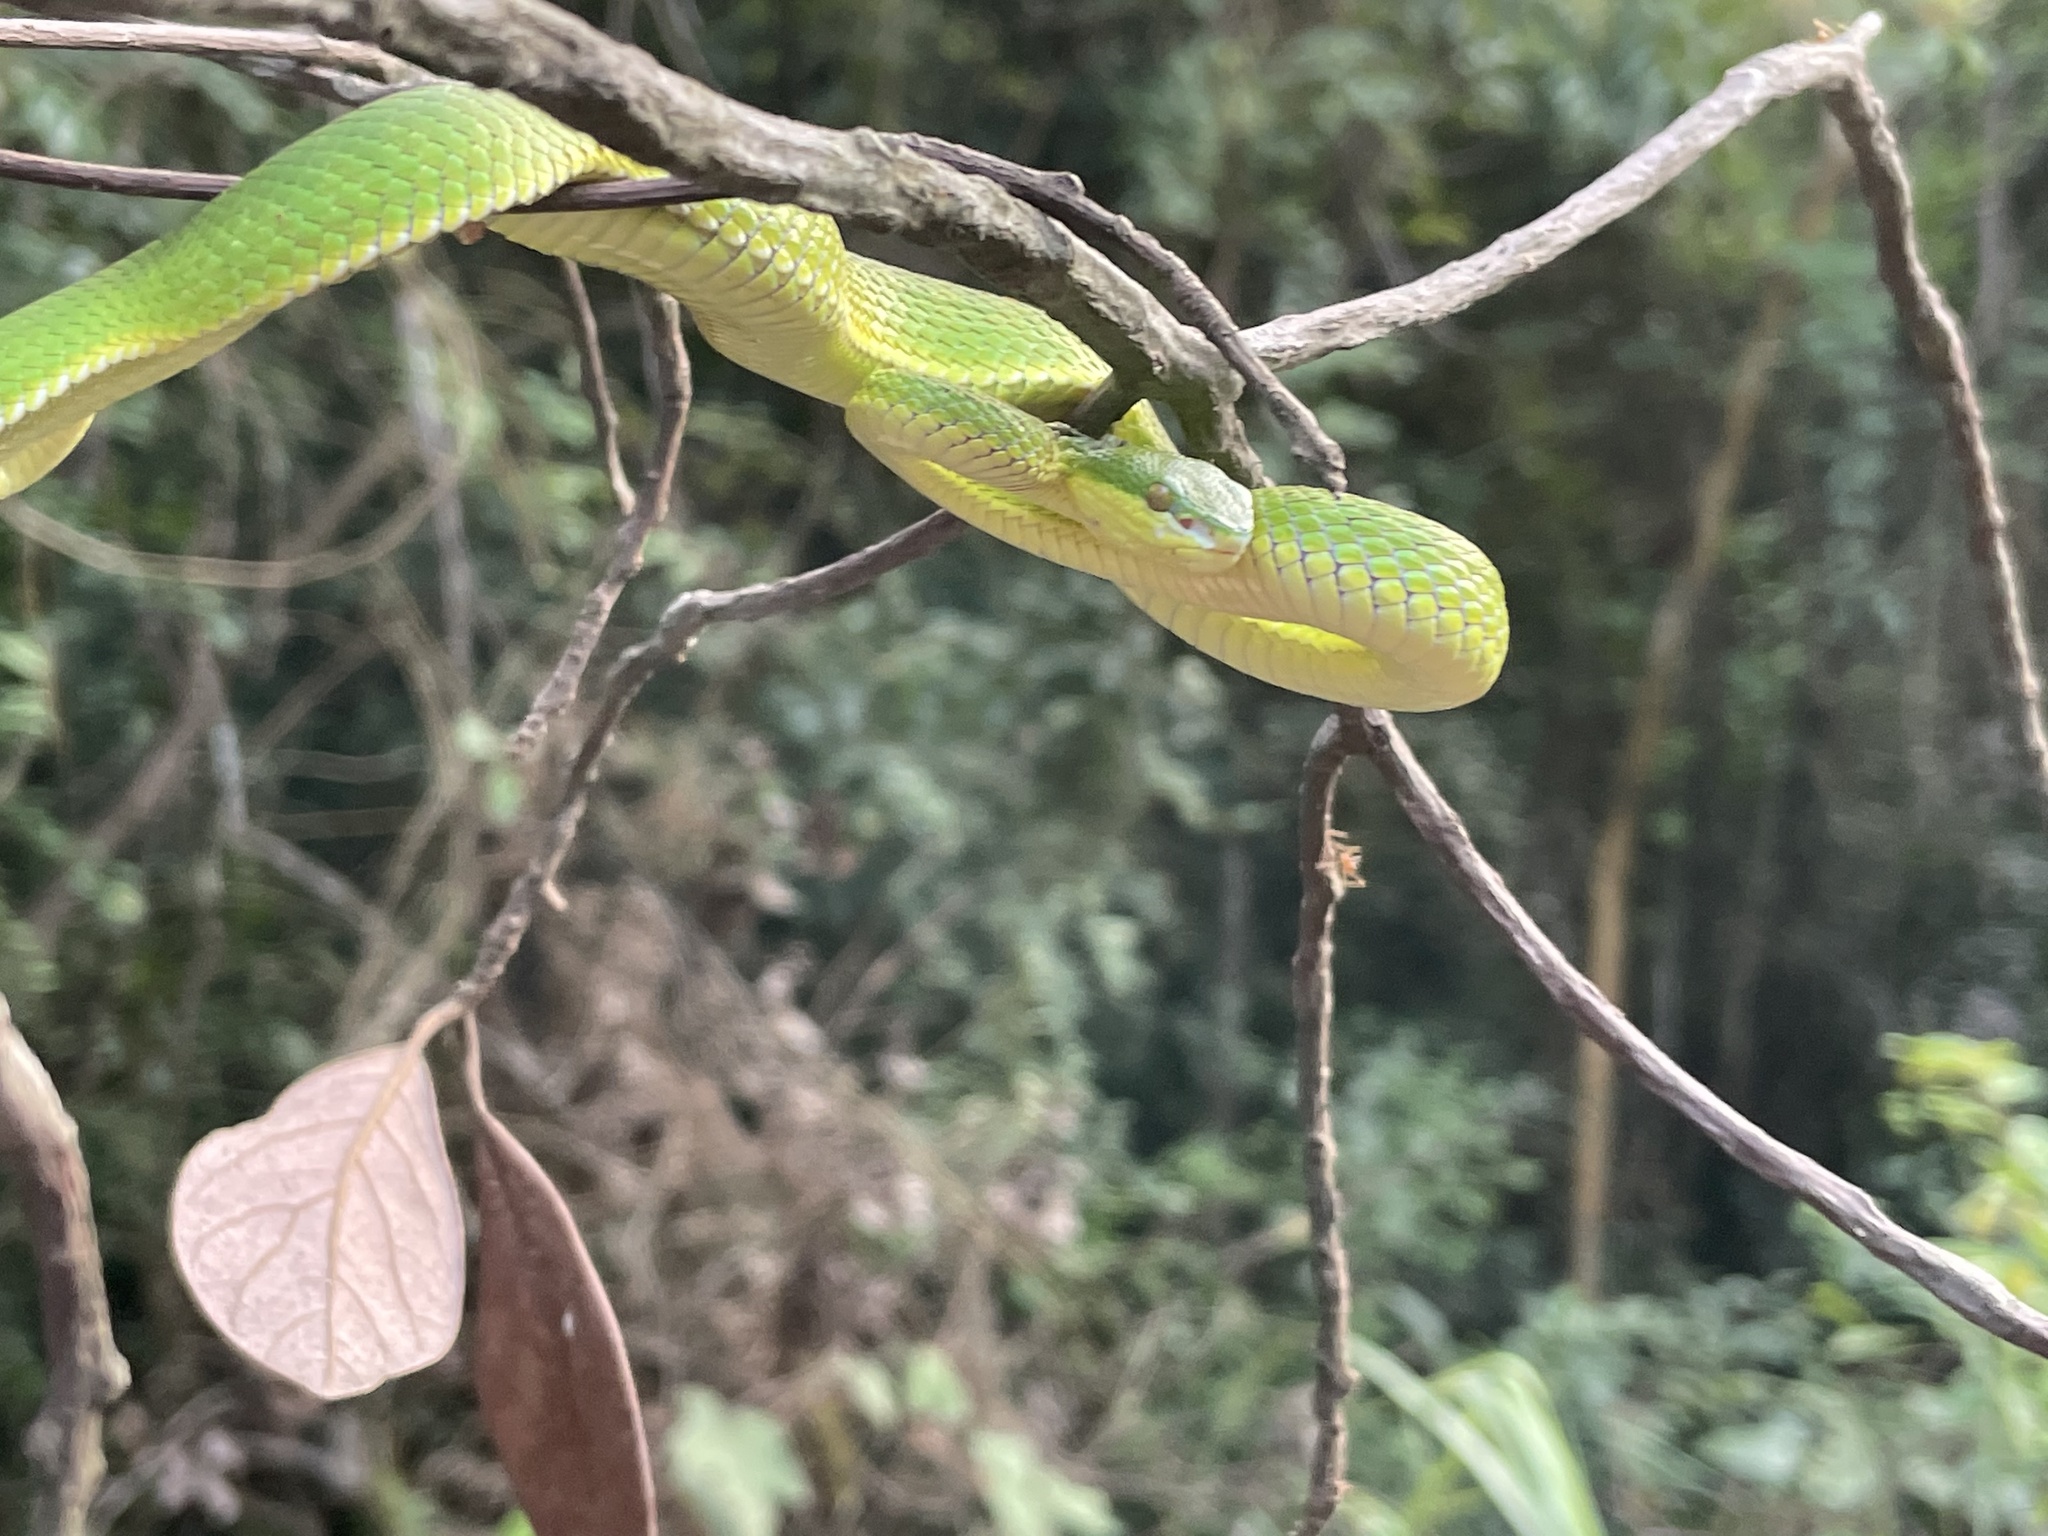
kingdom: Animalia
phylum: Chordata
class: Squamata
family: Viperidae
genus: Trimeresurus
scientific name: Trimeresurus albolabris
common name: White-lipped pitviper
